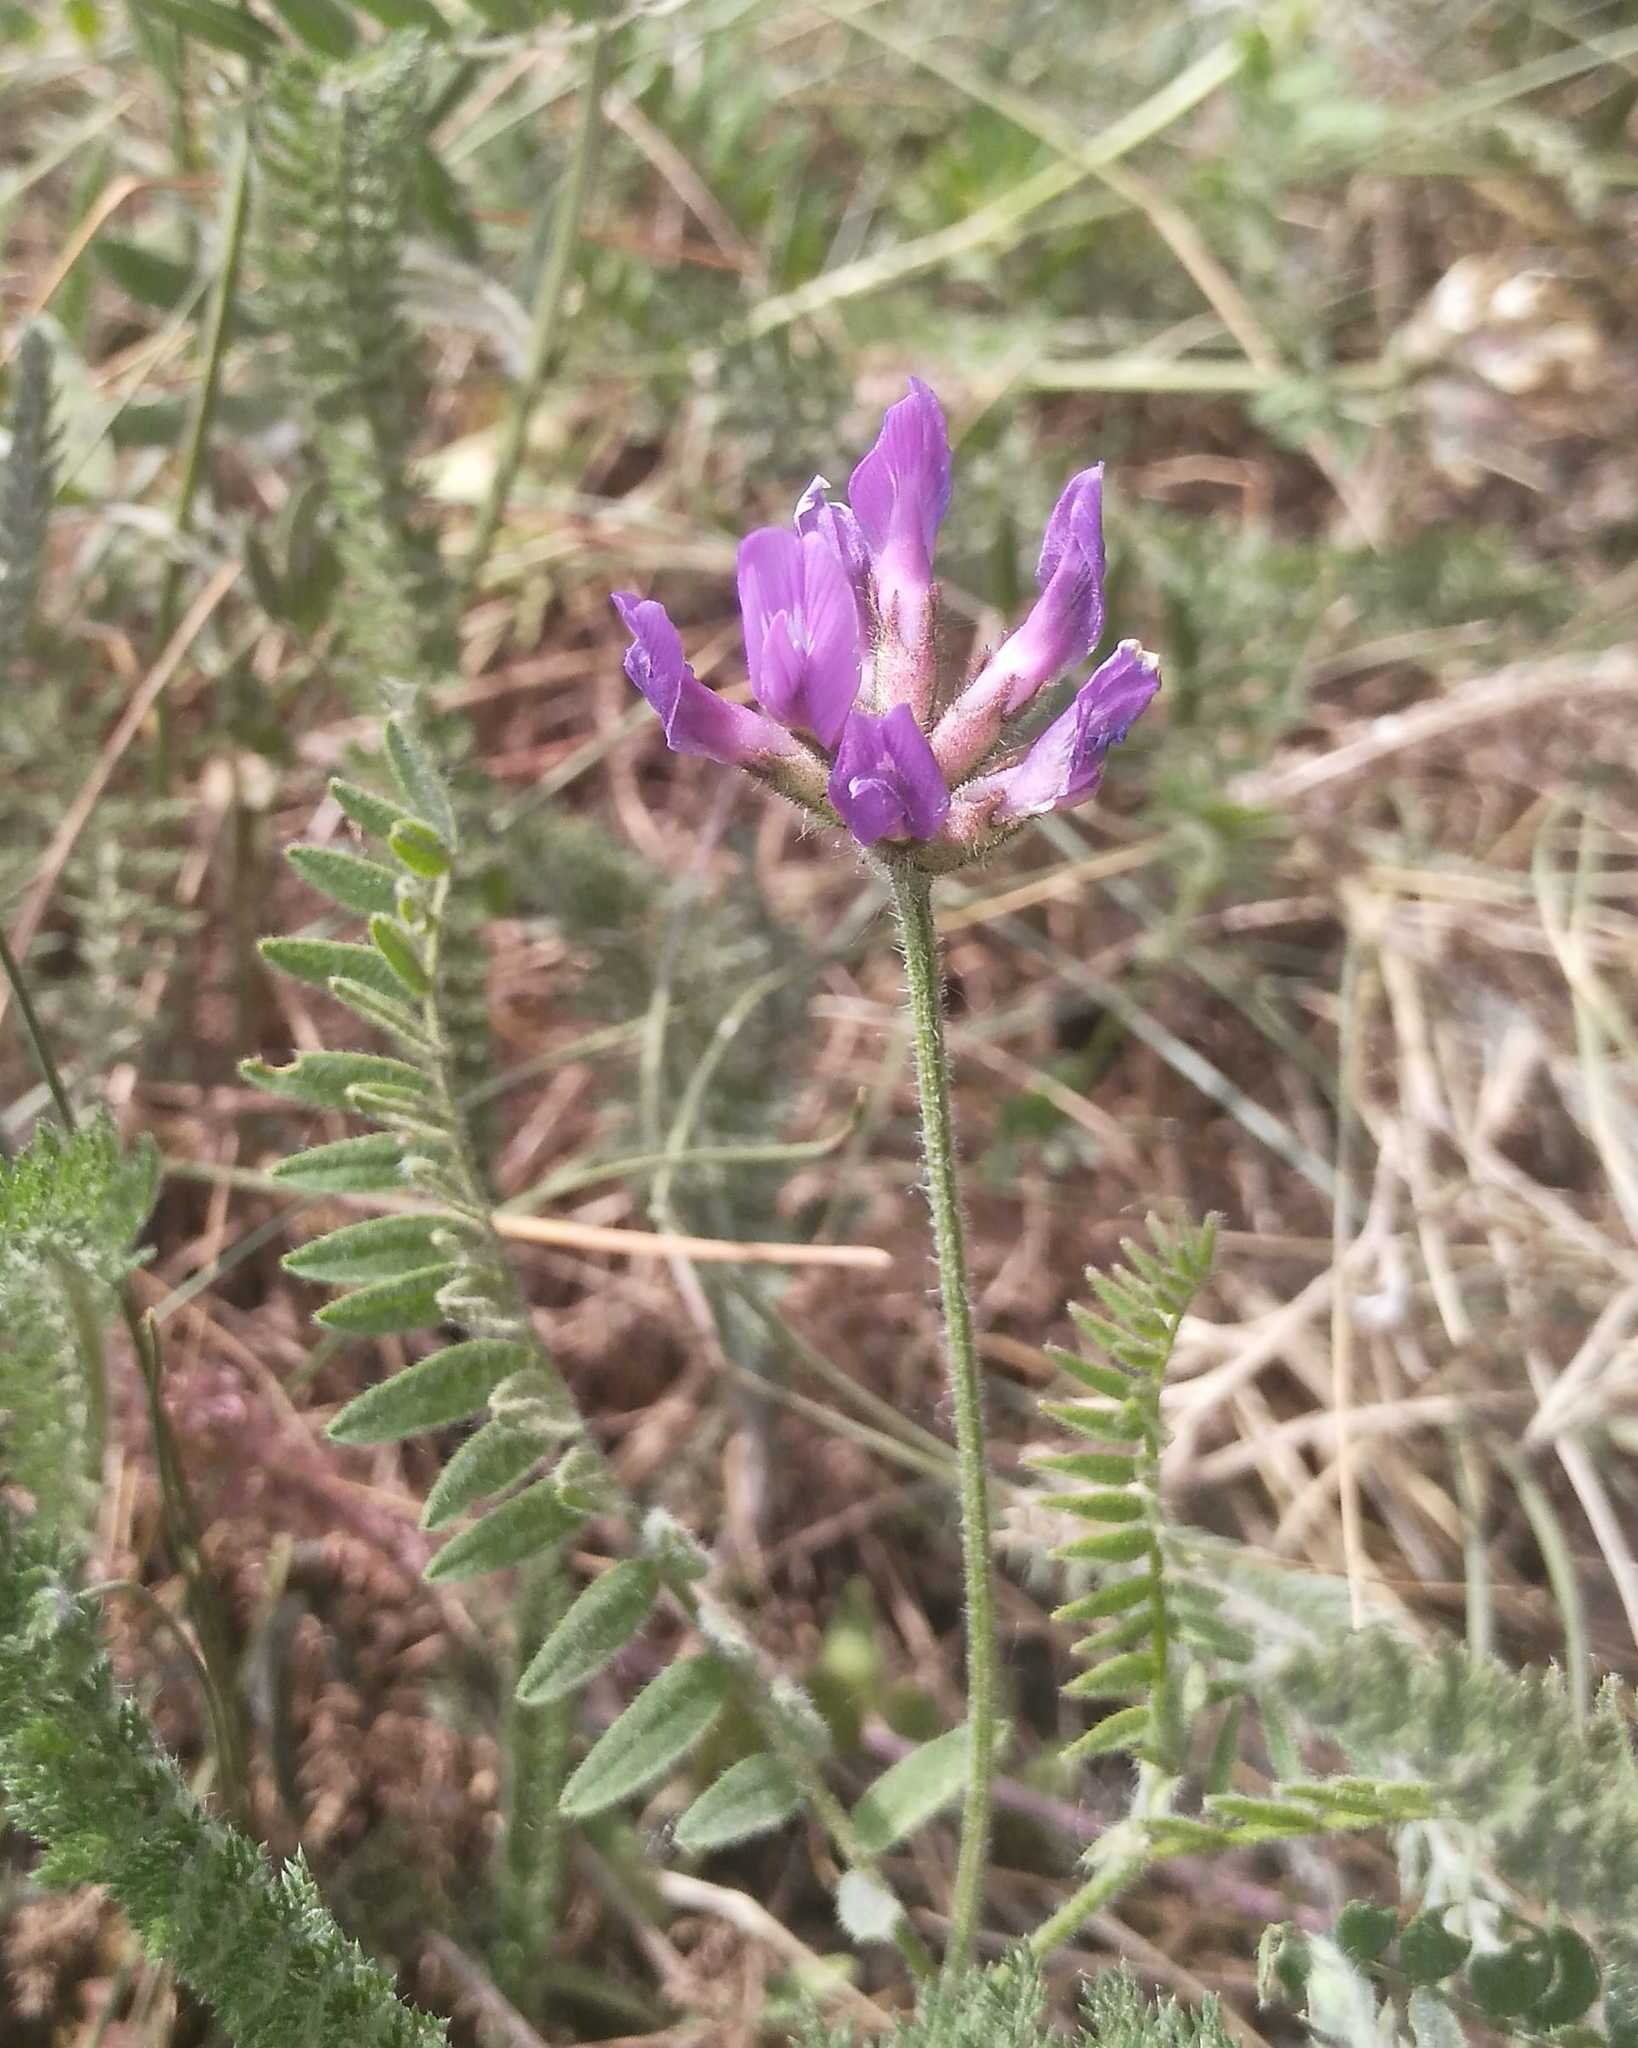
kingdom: Plantae
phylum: Tracheophyta
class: Magnoliopsida
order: Fabales
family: Fabaceae
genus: Astragalus
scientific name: Astragalus syriacus
